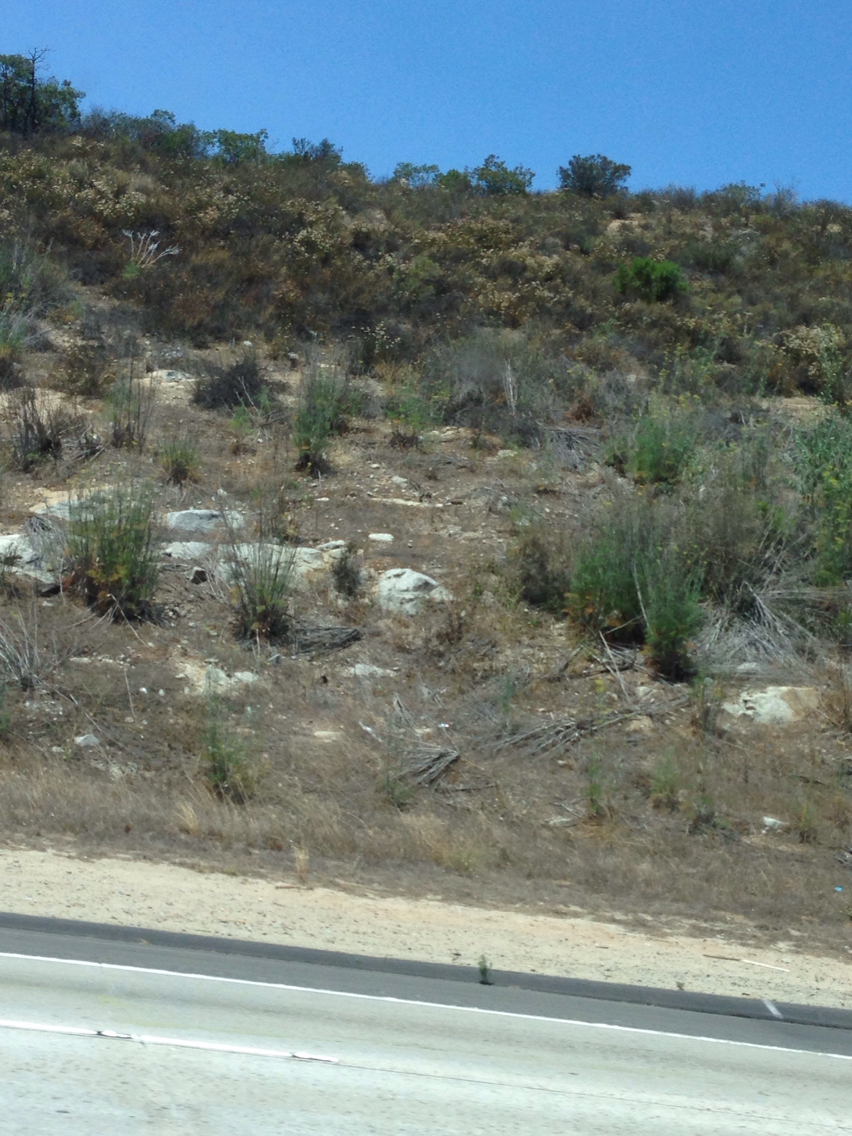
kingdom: Plantae
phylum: Tracheophyta
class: Magnoliopsida
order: Caryophyllales
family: Polygonaceae
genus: Eriogonum
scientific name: Eriogonum fasciculatum
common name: California wild buckwheat
